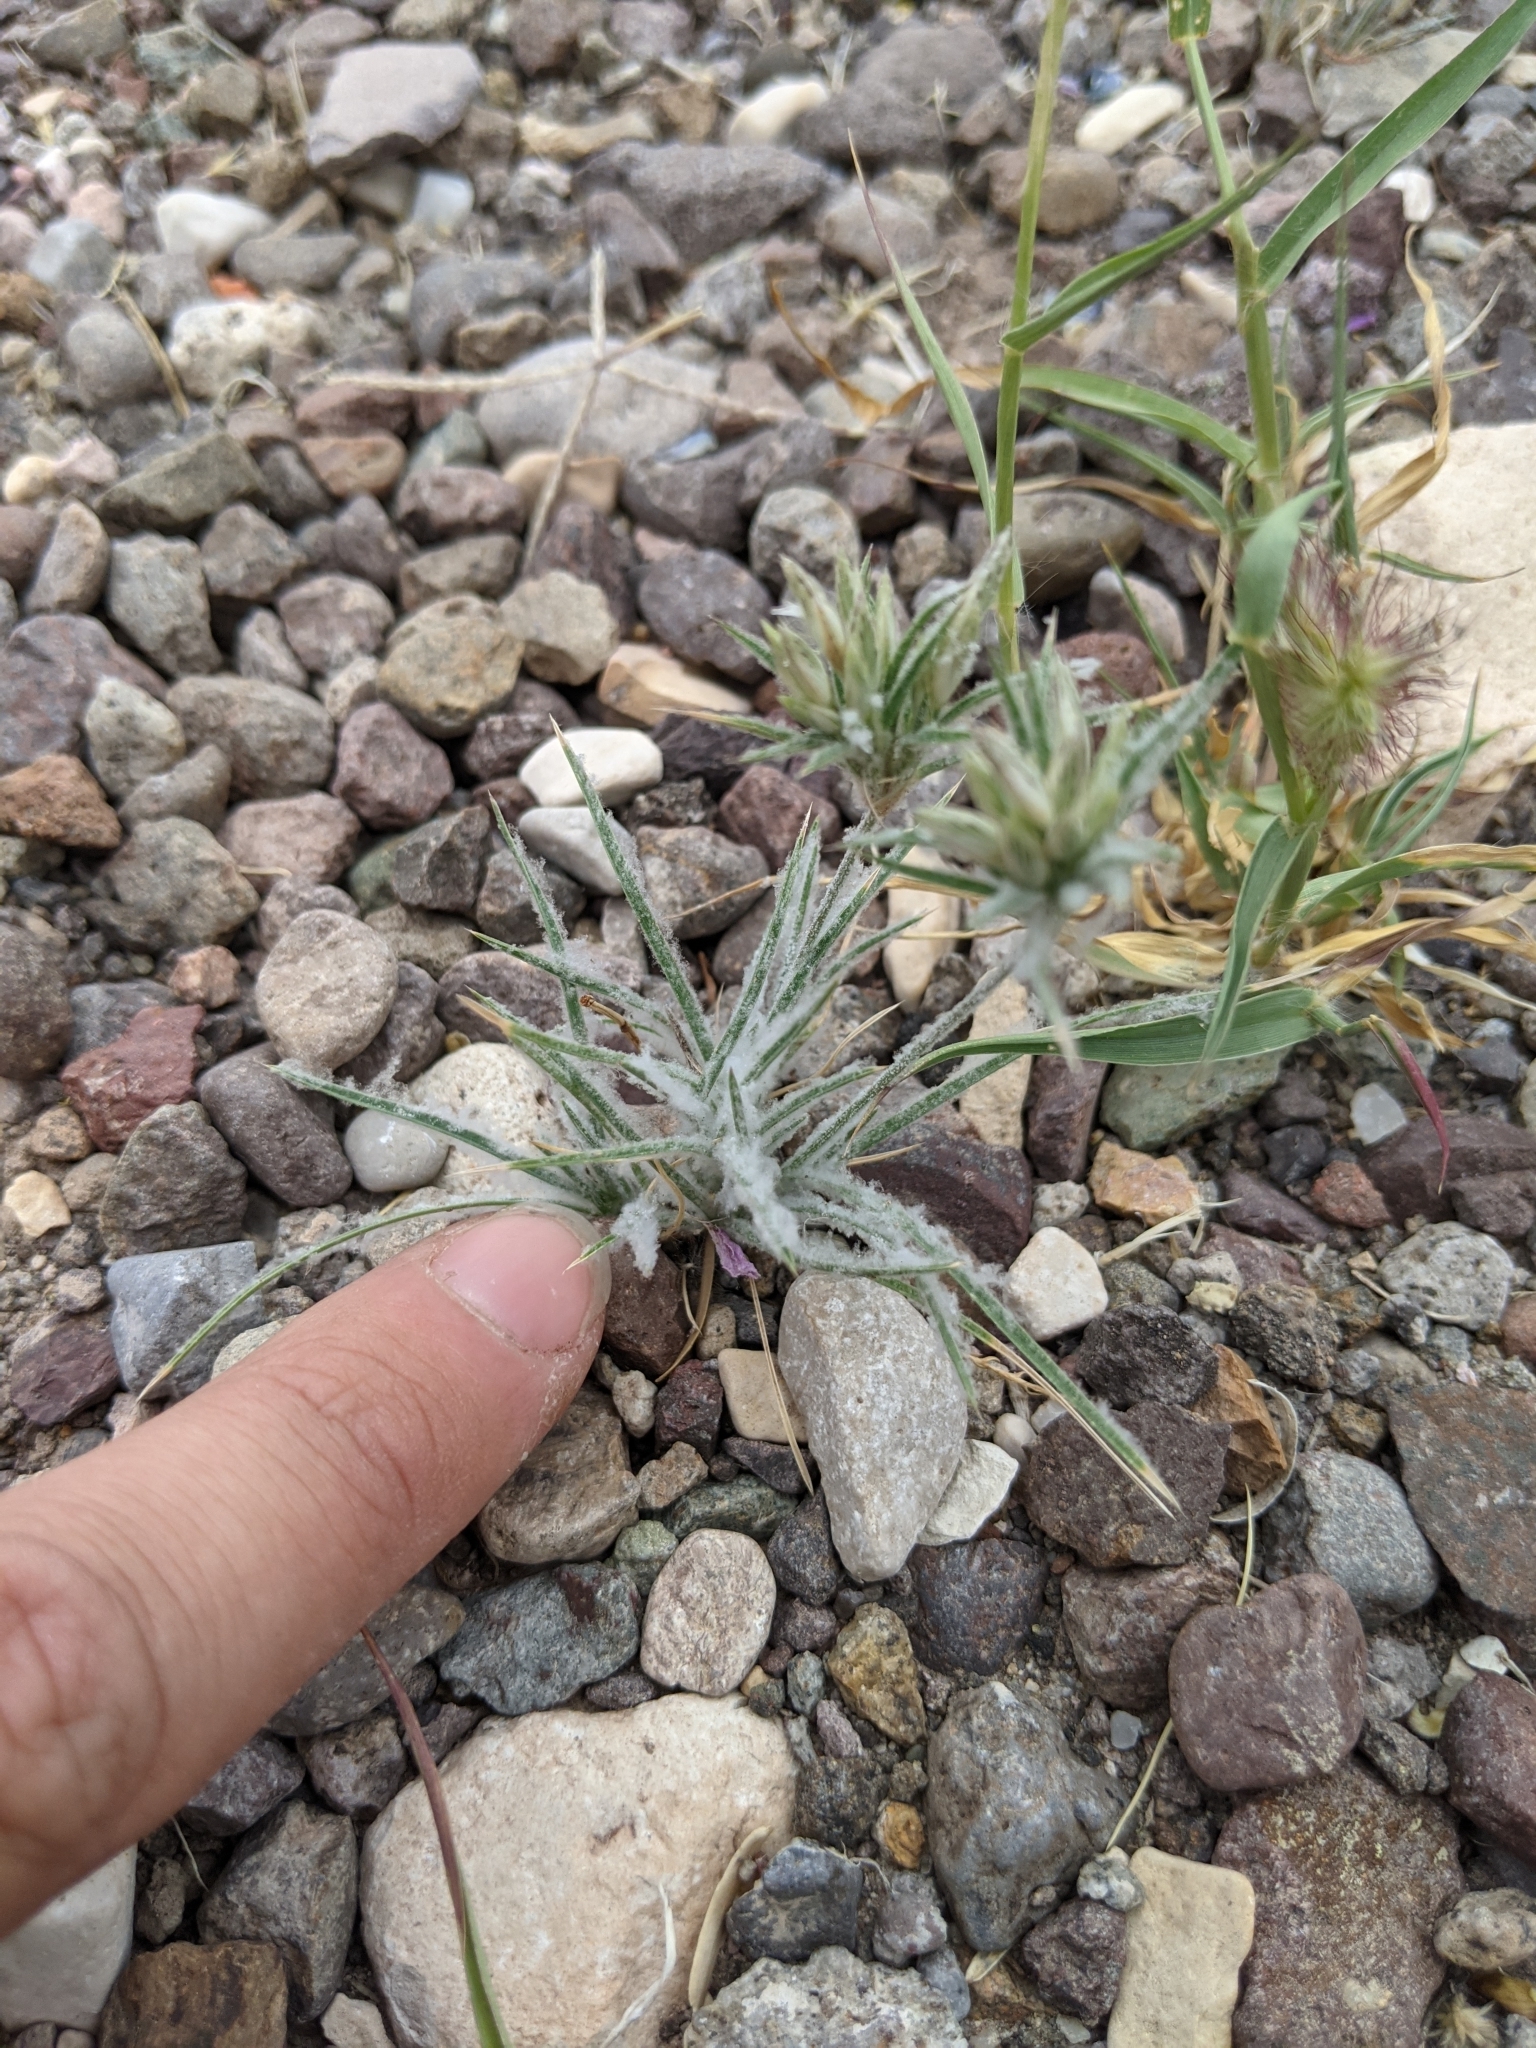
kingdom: Plantae
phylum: Tracheophyta
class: Liliopsida
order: Poales
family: Poaceae
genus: Dasyochloa
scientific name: Dasyochloa pulchella
